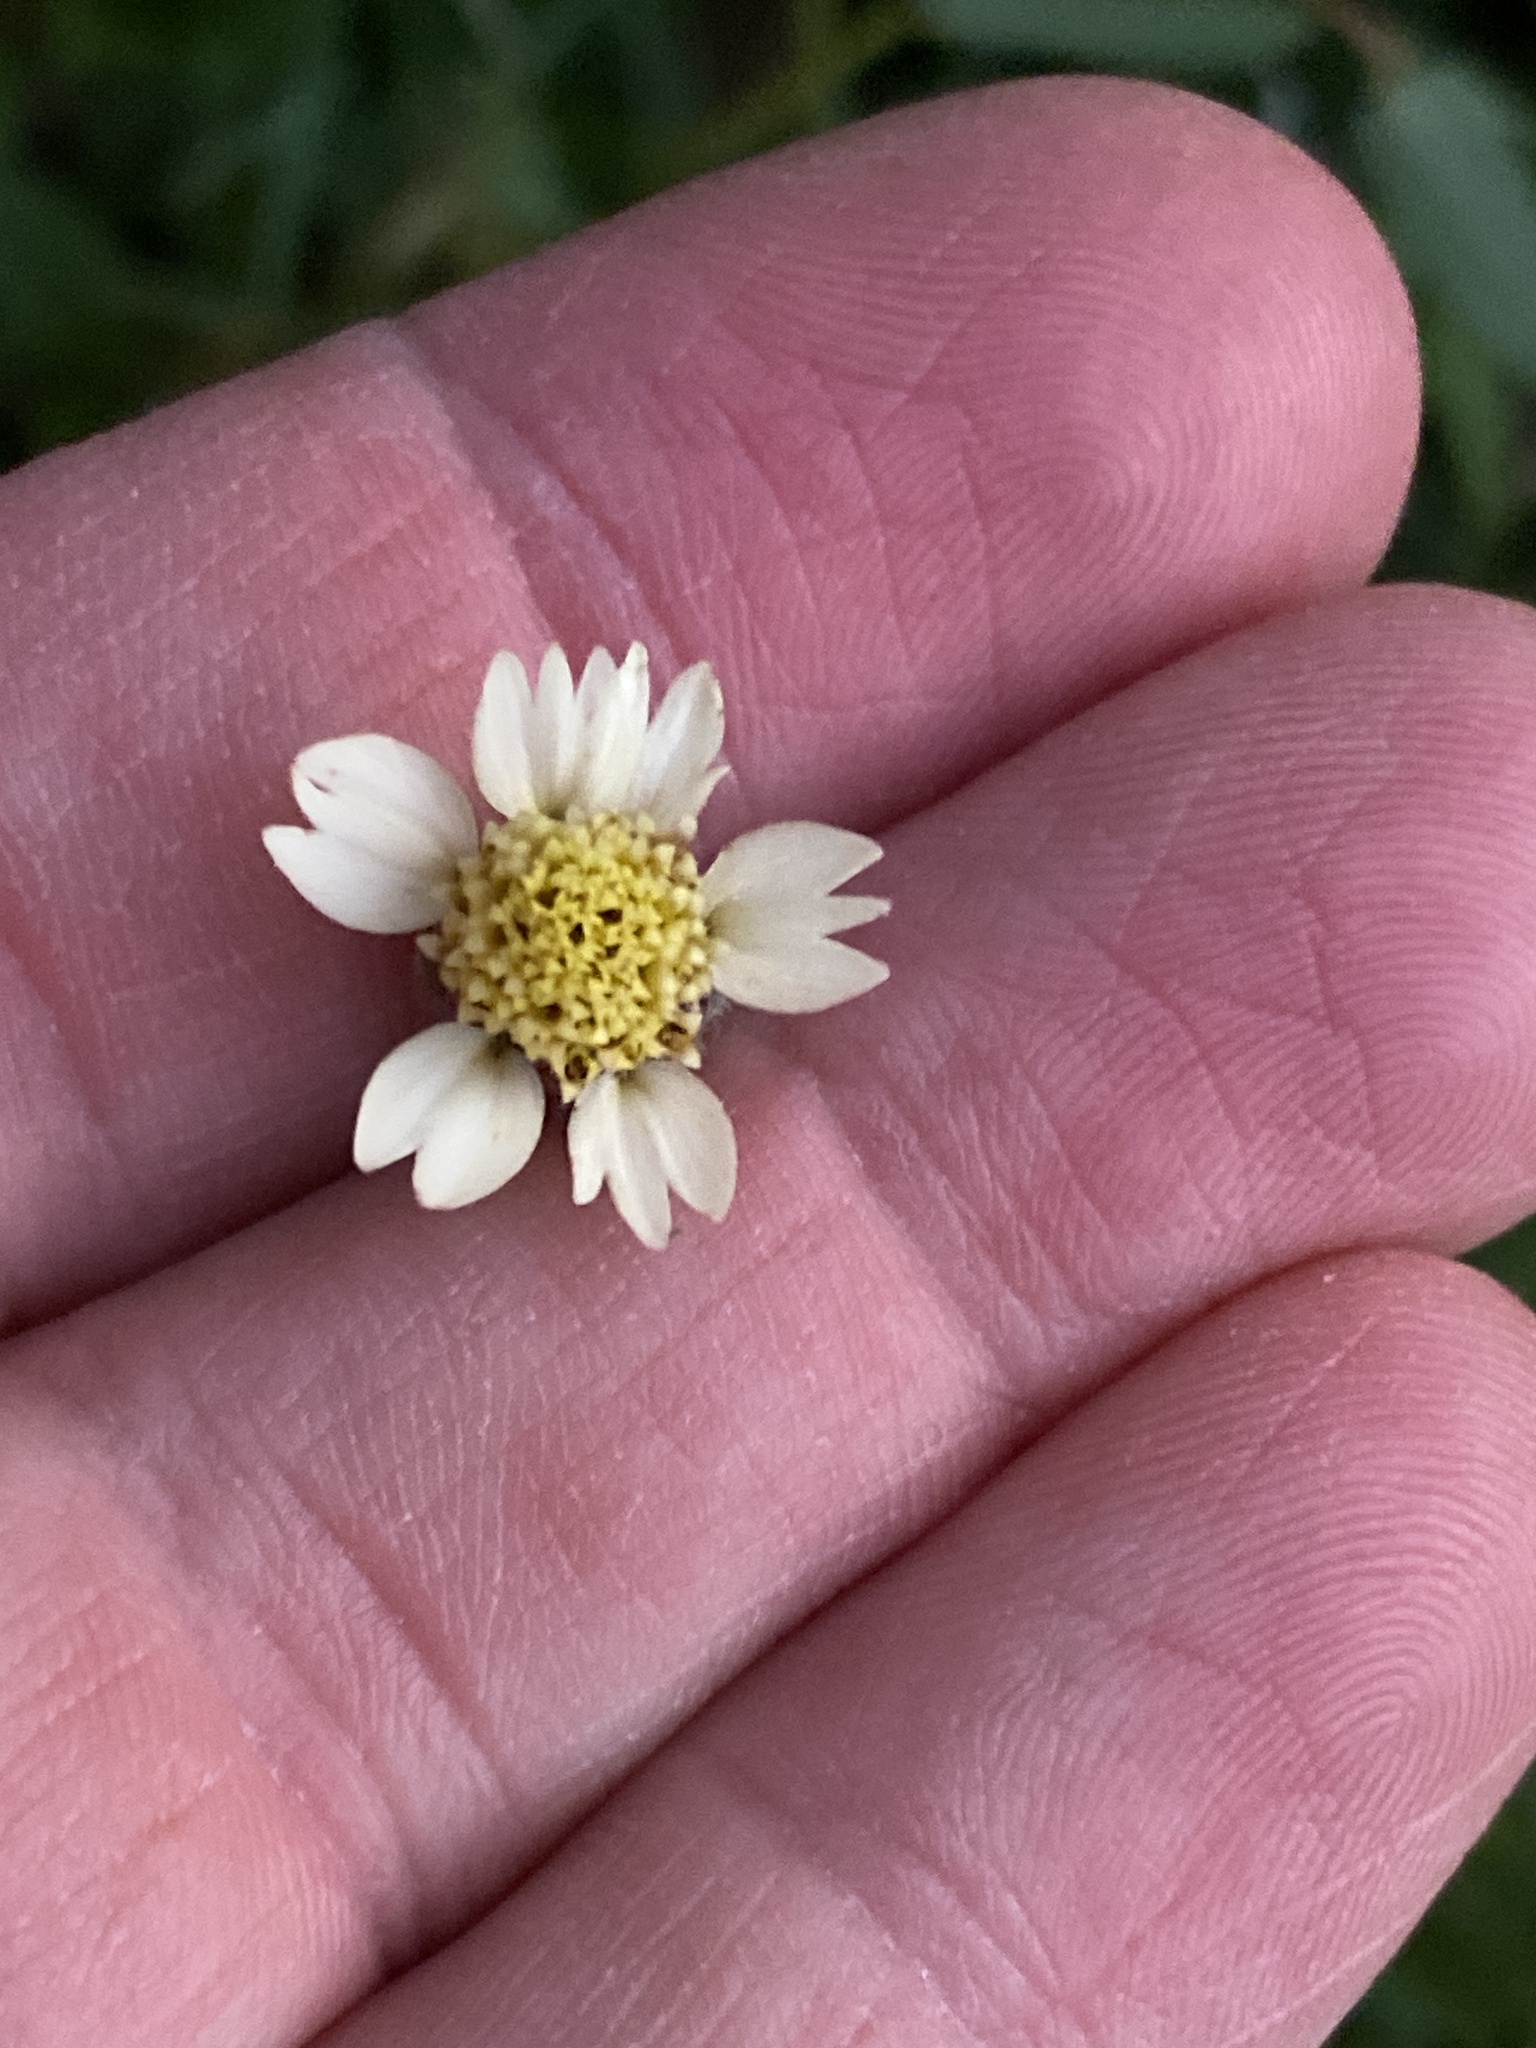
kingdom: Plantae
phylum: Tracheophyta
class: Magnoliopsida
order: Asterales
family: Asteraceae
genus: Tridax
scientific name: Tridax procumbens
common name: Coatbuttons
